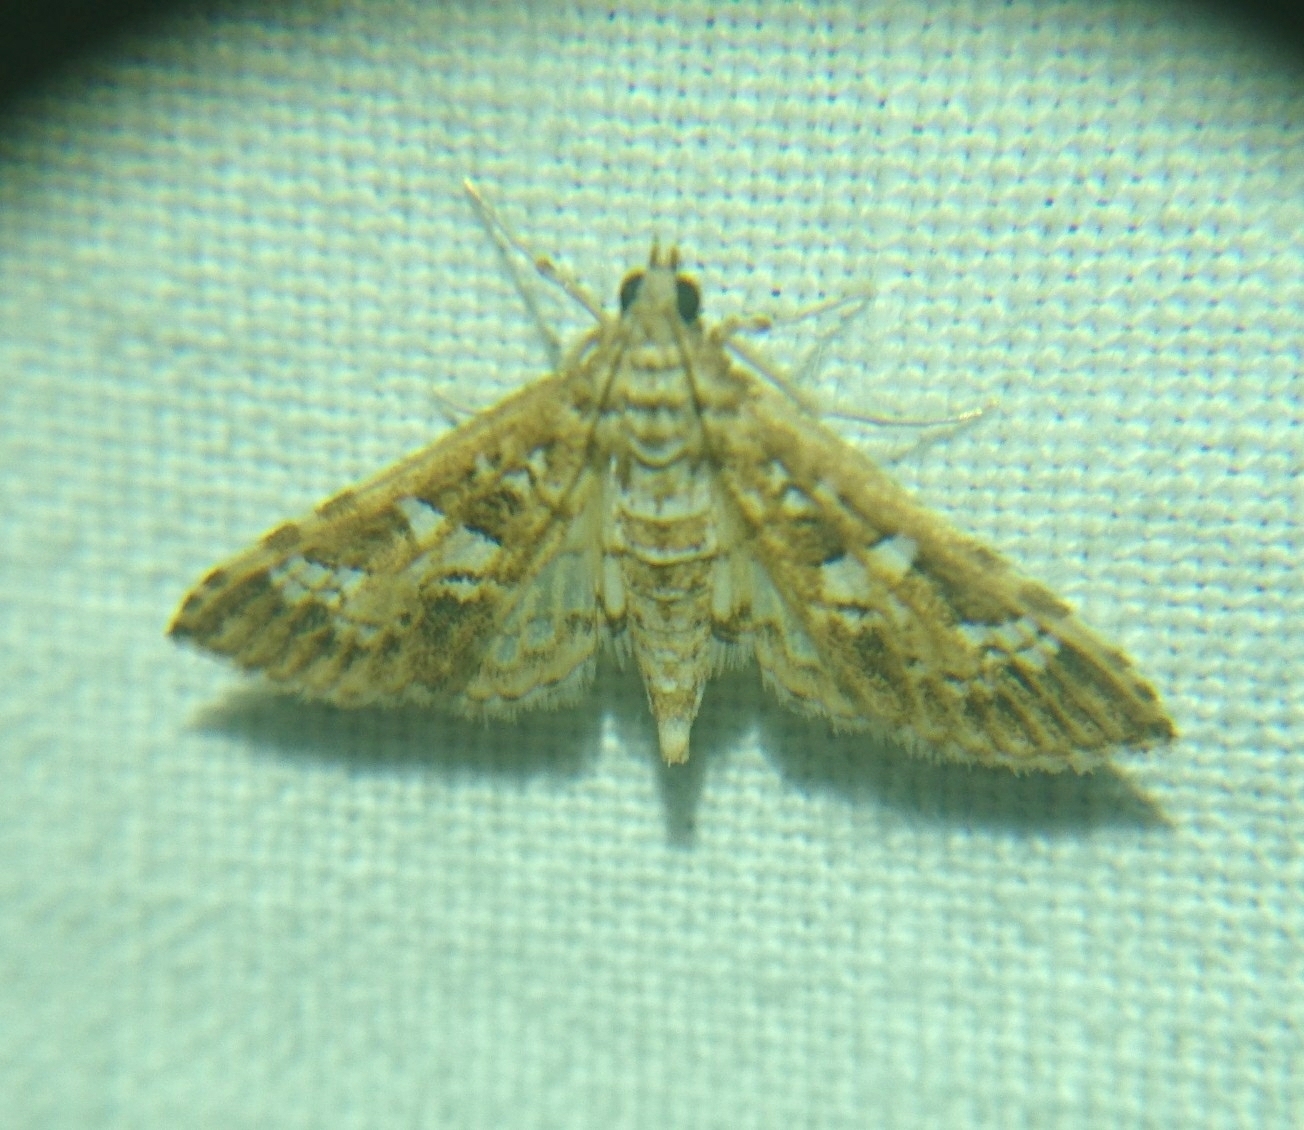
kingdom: Animalia
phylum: Arthropoda
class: Insecta
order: Lepidoptera
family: Crambidae
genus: Samea
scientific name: Samea multiplicalis
